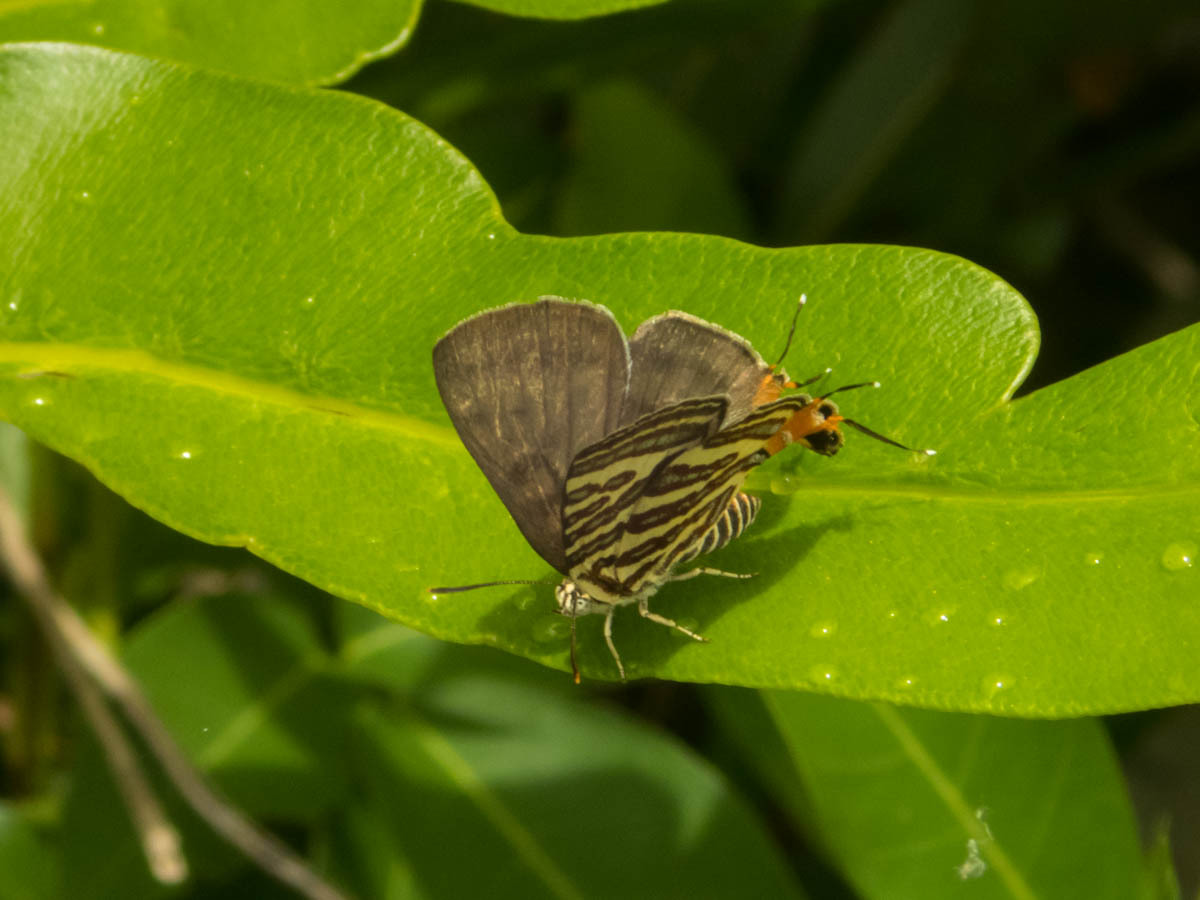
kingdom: Animalia
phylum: Arthropoda
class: Insecta
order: Lepidoptera
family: Lycaenidae
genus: Cigaritis
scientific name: Cigaritis lohita
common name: Long-banded silverline
